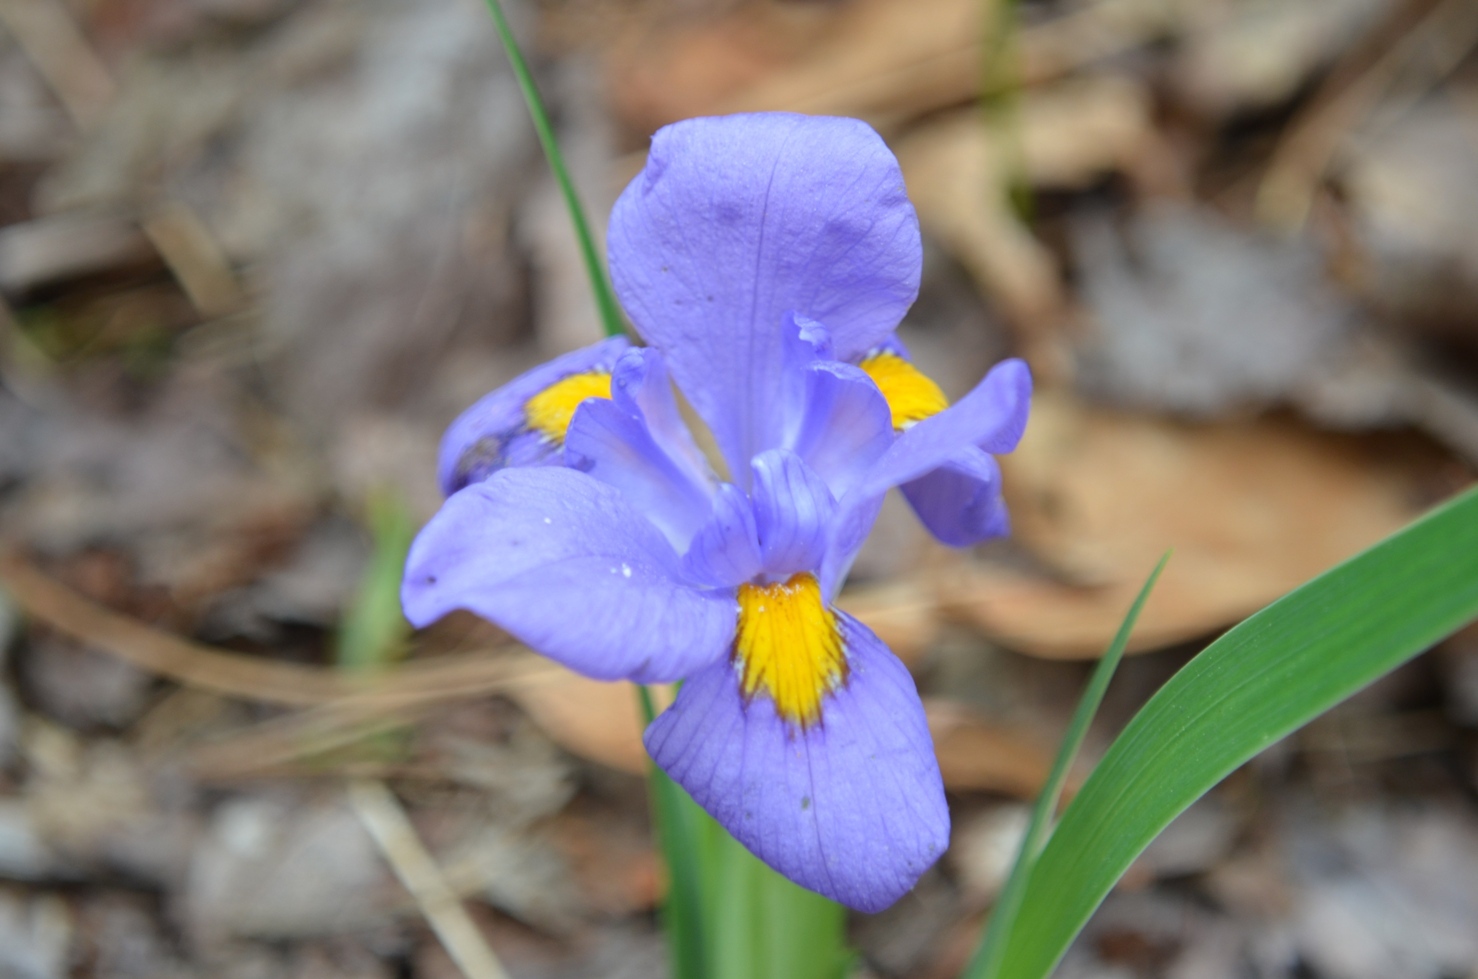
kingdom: Plantae
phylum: Tracheophyta
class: Liliopsida
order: Asparagales
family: Iridaceae
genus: Iris
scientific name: Iris verna
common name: Dwarf iris
